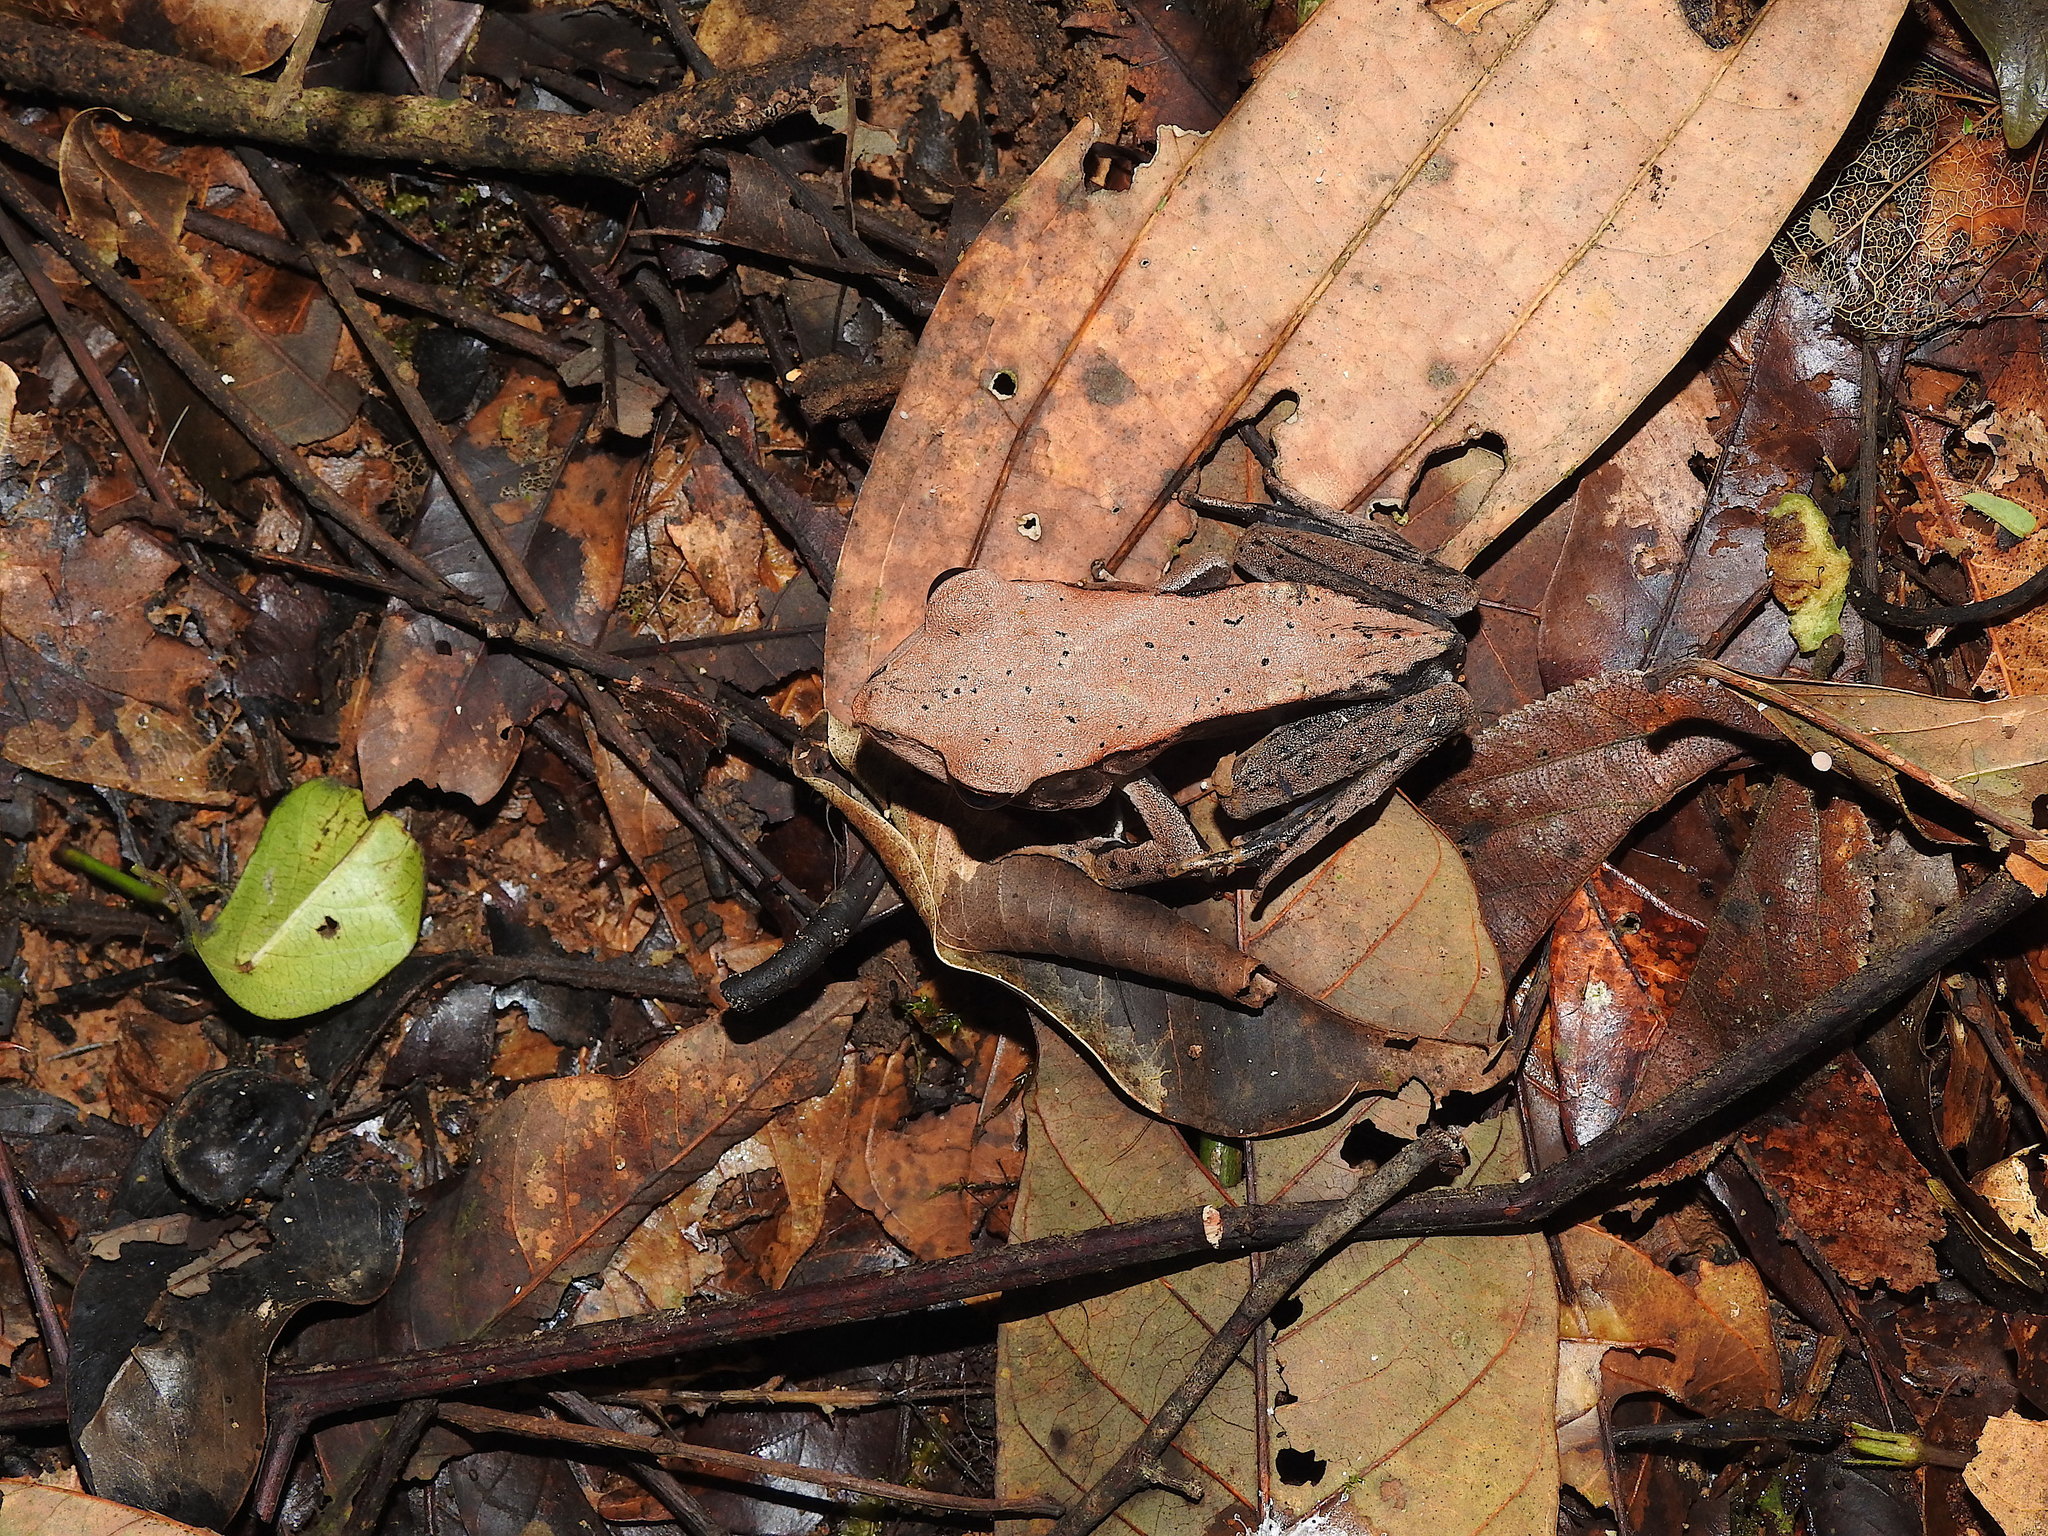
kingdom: Animalia
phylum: Chordata
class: Amphibia
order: Anura
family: Ranidae
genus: Clinotarsus
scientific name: Clinotarsus curtipes
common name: Bicoloured frog
